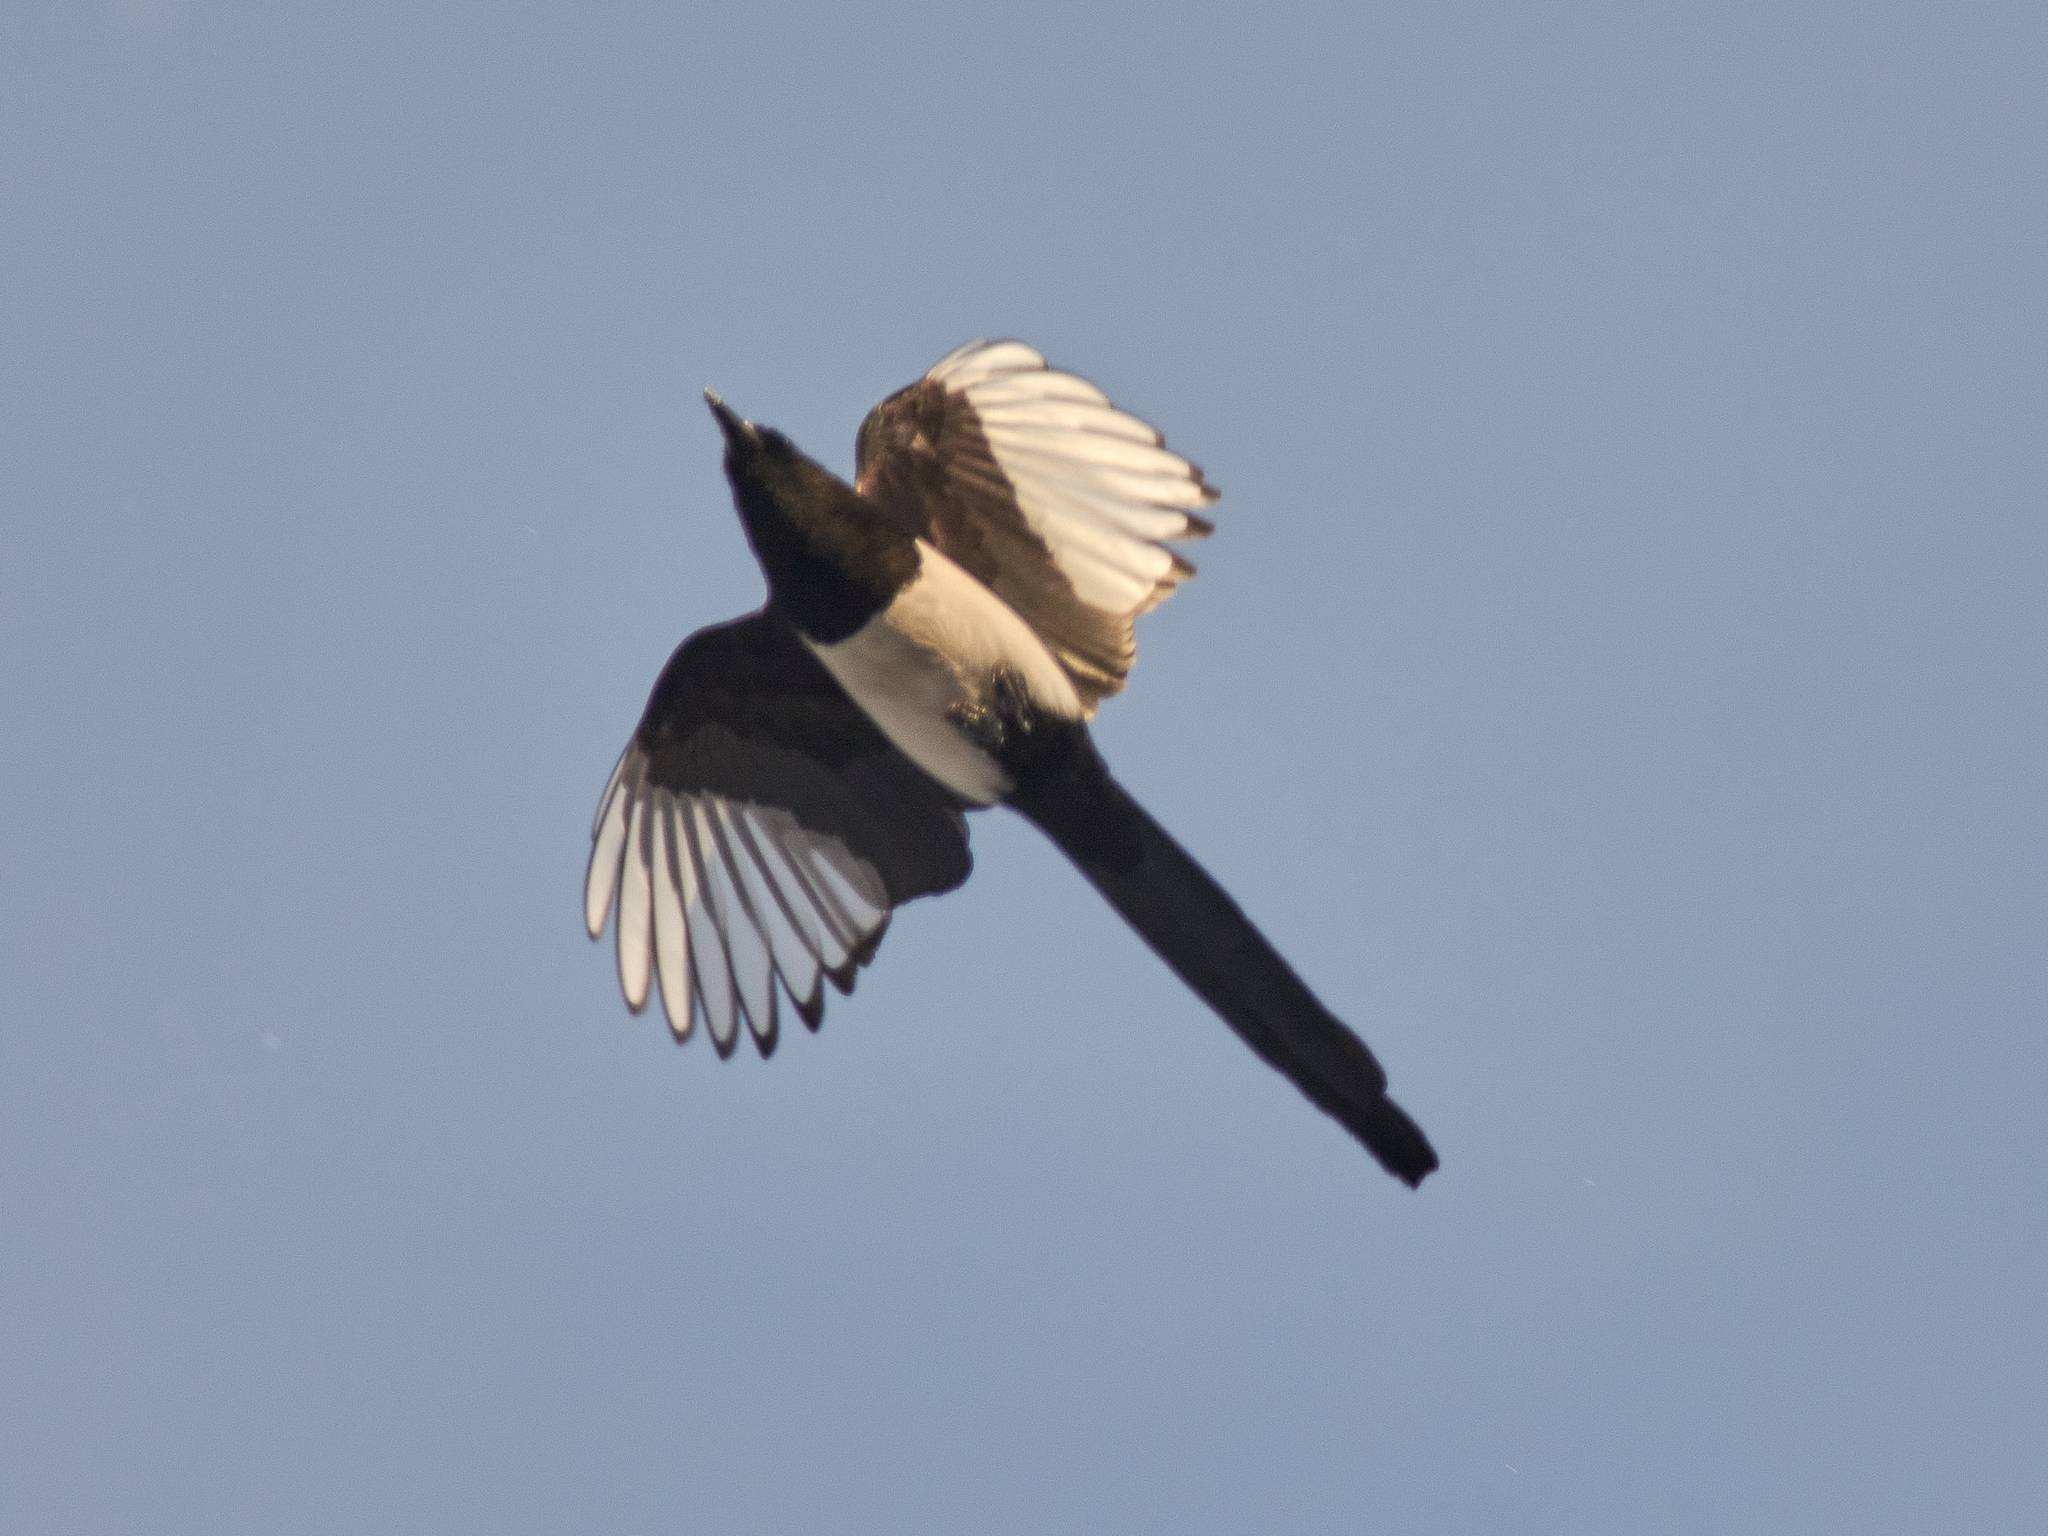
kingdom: Animalia
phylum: Chordata
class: Aves
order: Passeriformes
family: Corvidae
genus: Pica
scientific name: Pica pica
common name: Eurasian magpie
